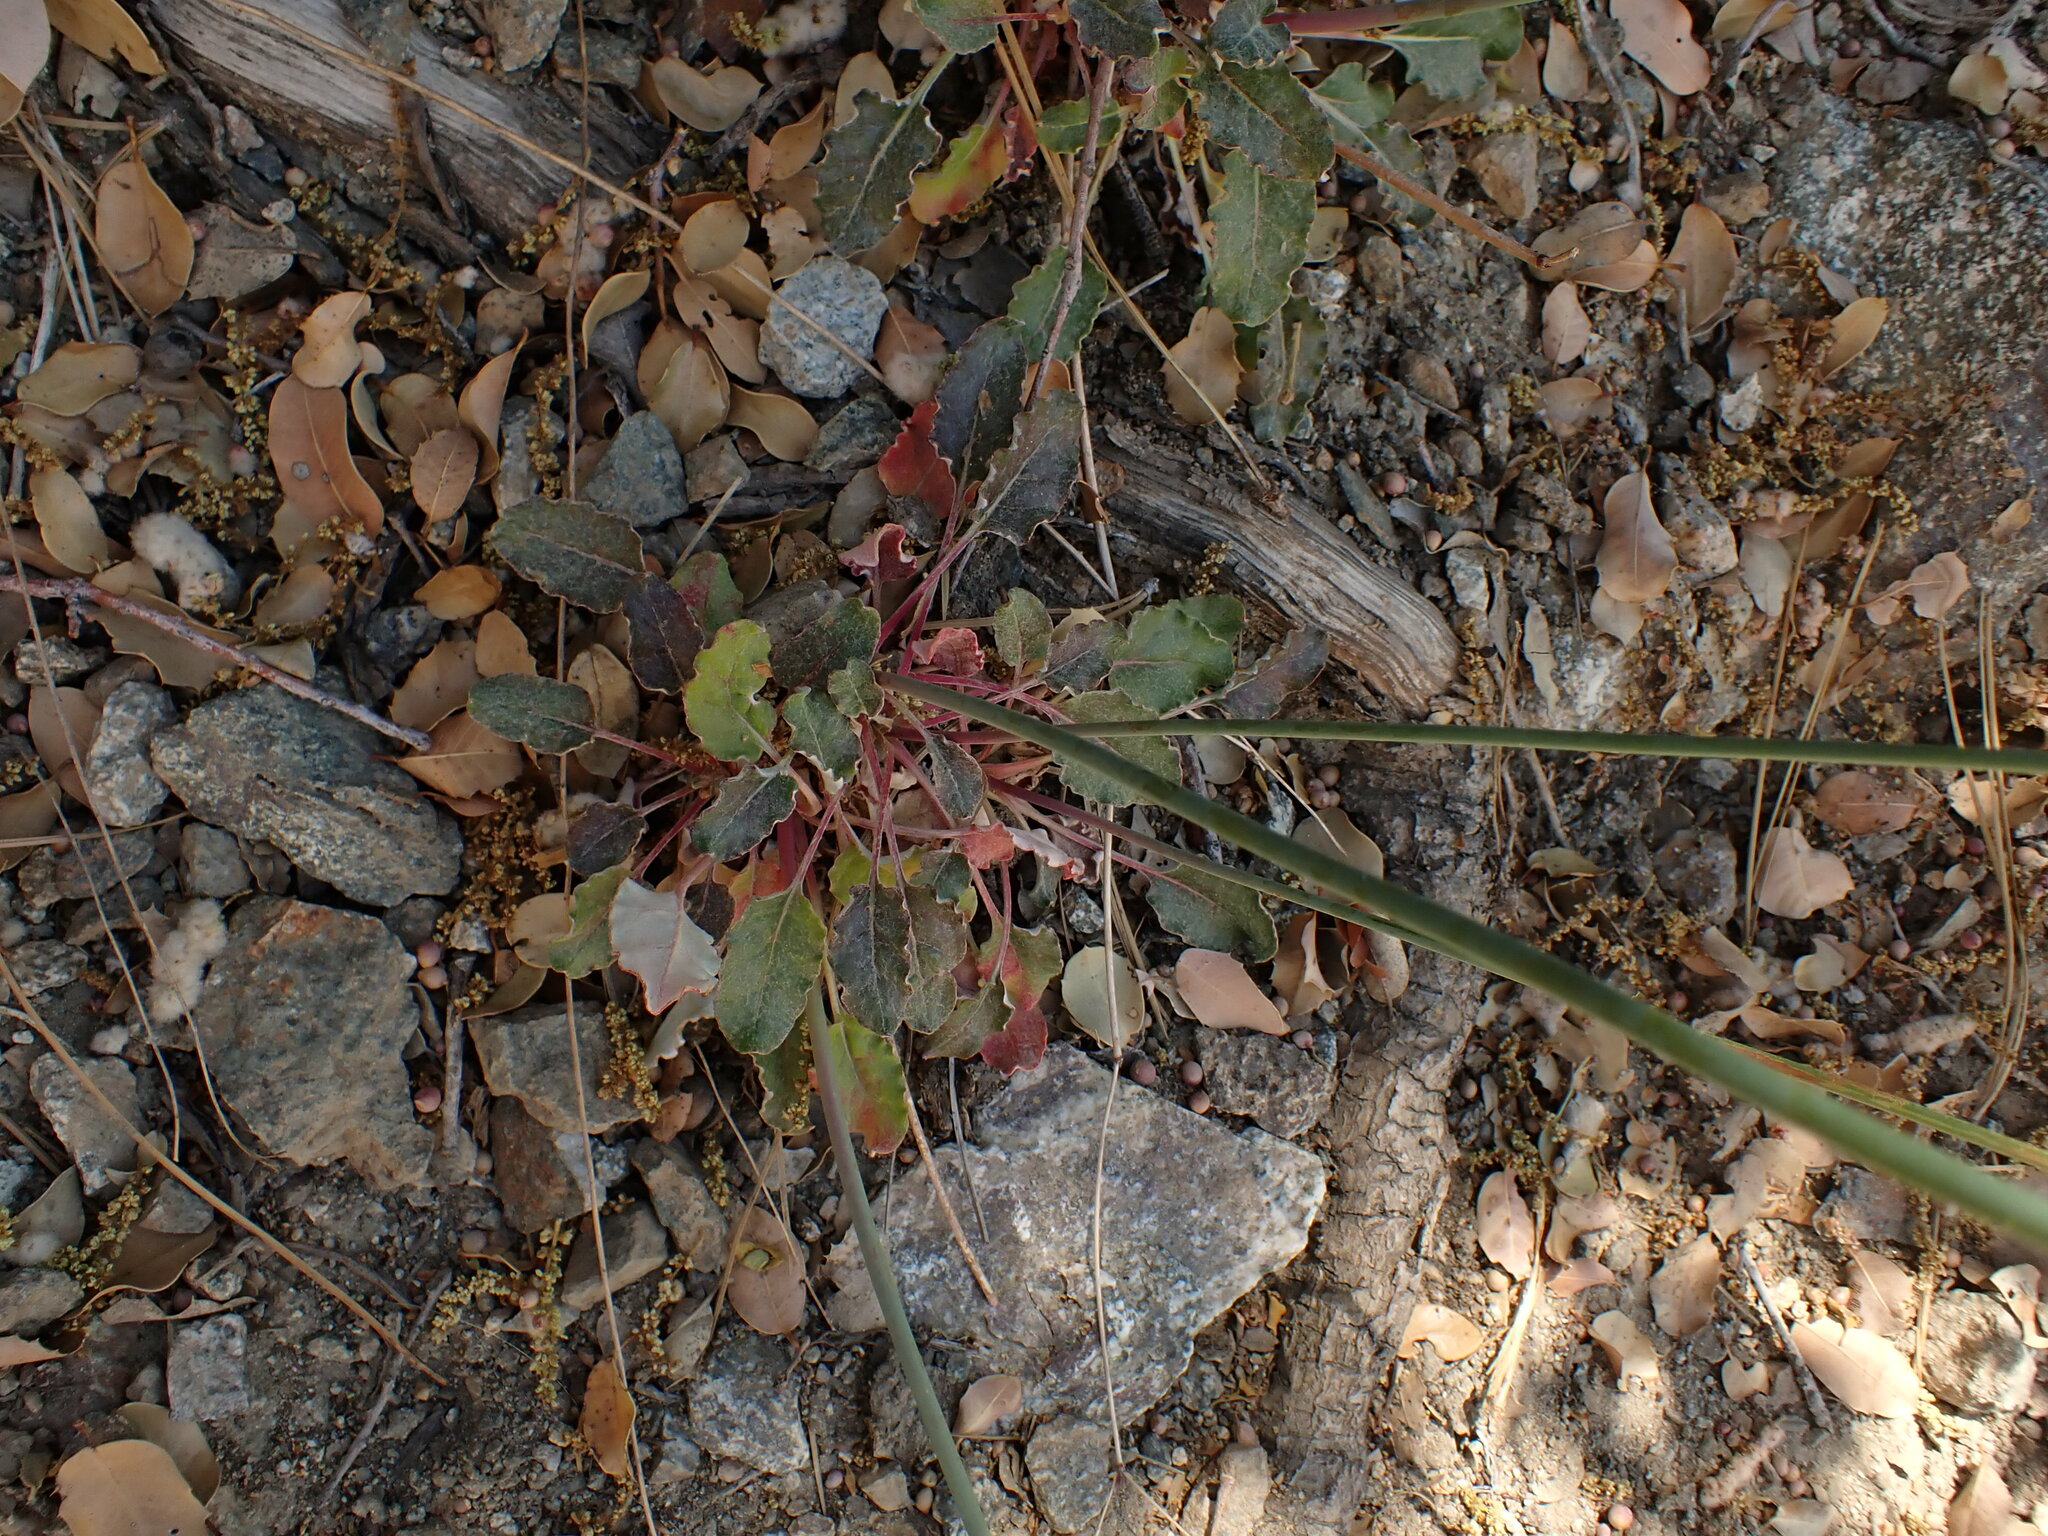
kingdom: Plantae
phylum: Tracheophyta
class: Magnoliopsida
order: Caryophyllales
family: Polygonaceae
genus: Eriogonum
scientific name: Eriogonum nudum
